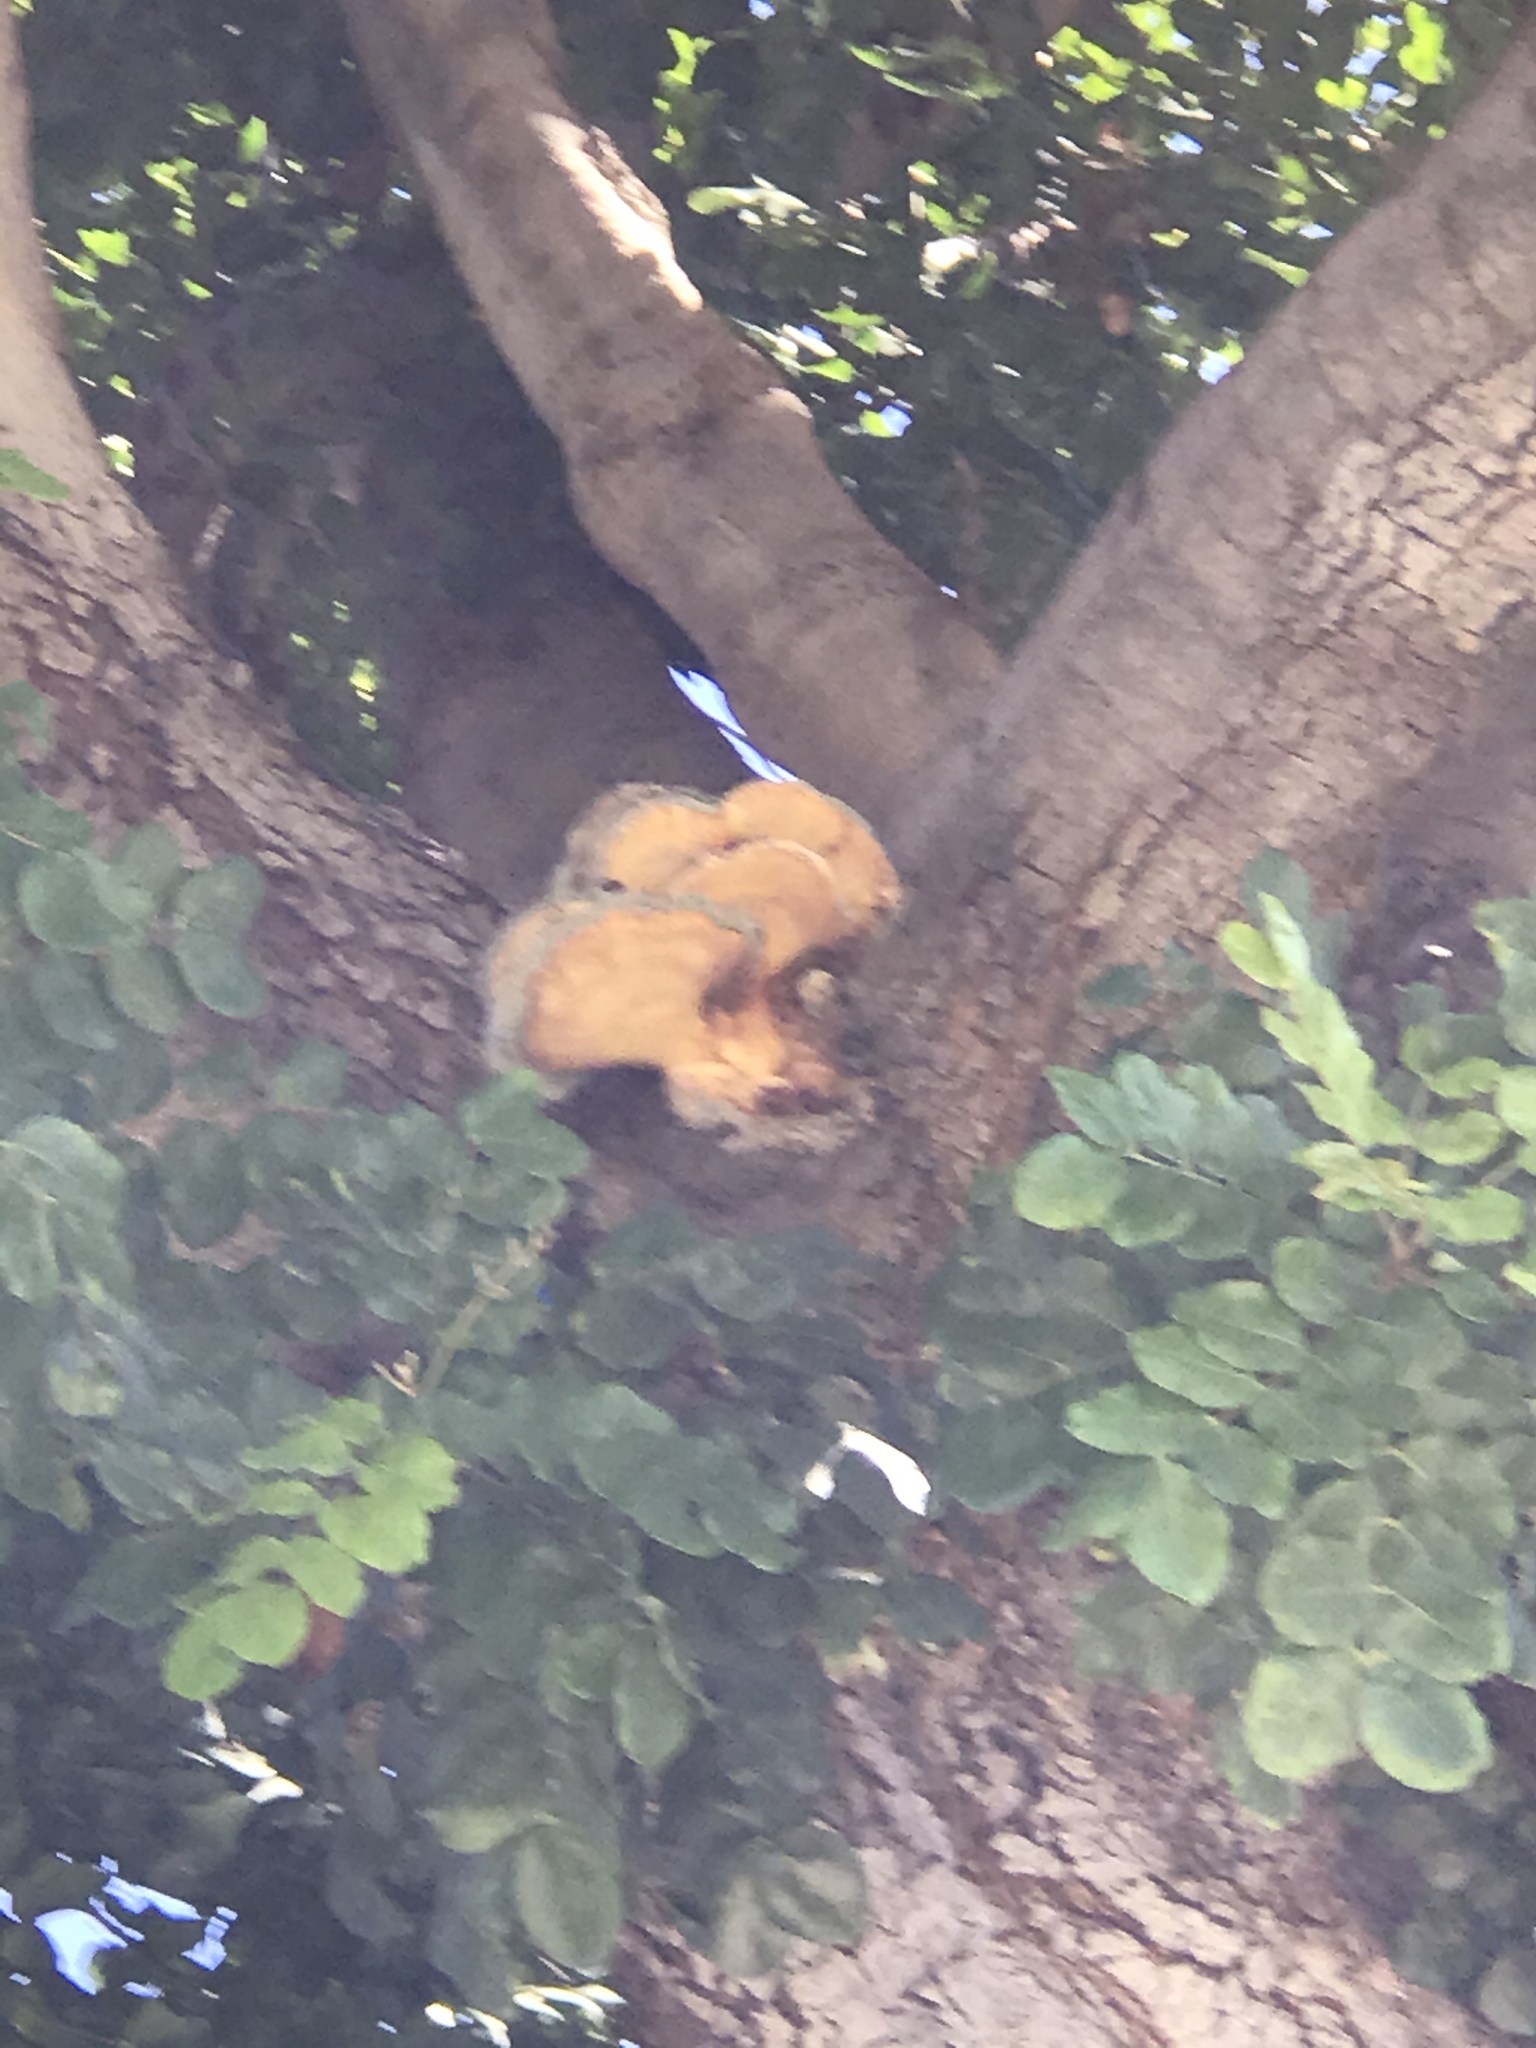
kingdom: Fungi
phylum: Basidiomycota
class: Agaricomycetes
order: Polyporales
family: Laetiporaceae
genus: Laetiporus
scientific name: Laetiporus gilbertsonii
